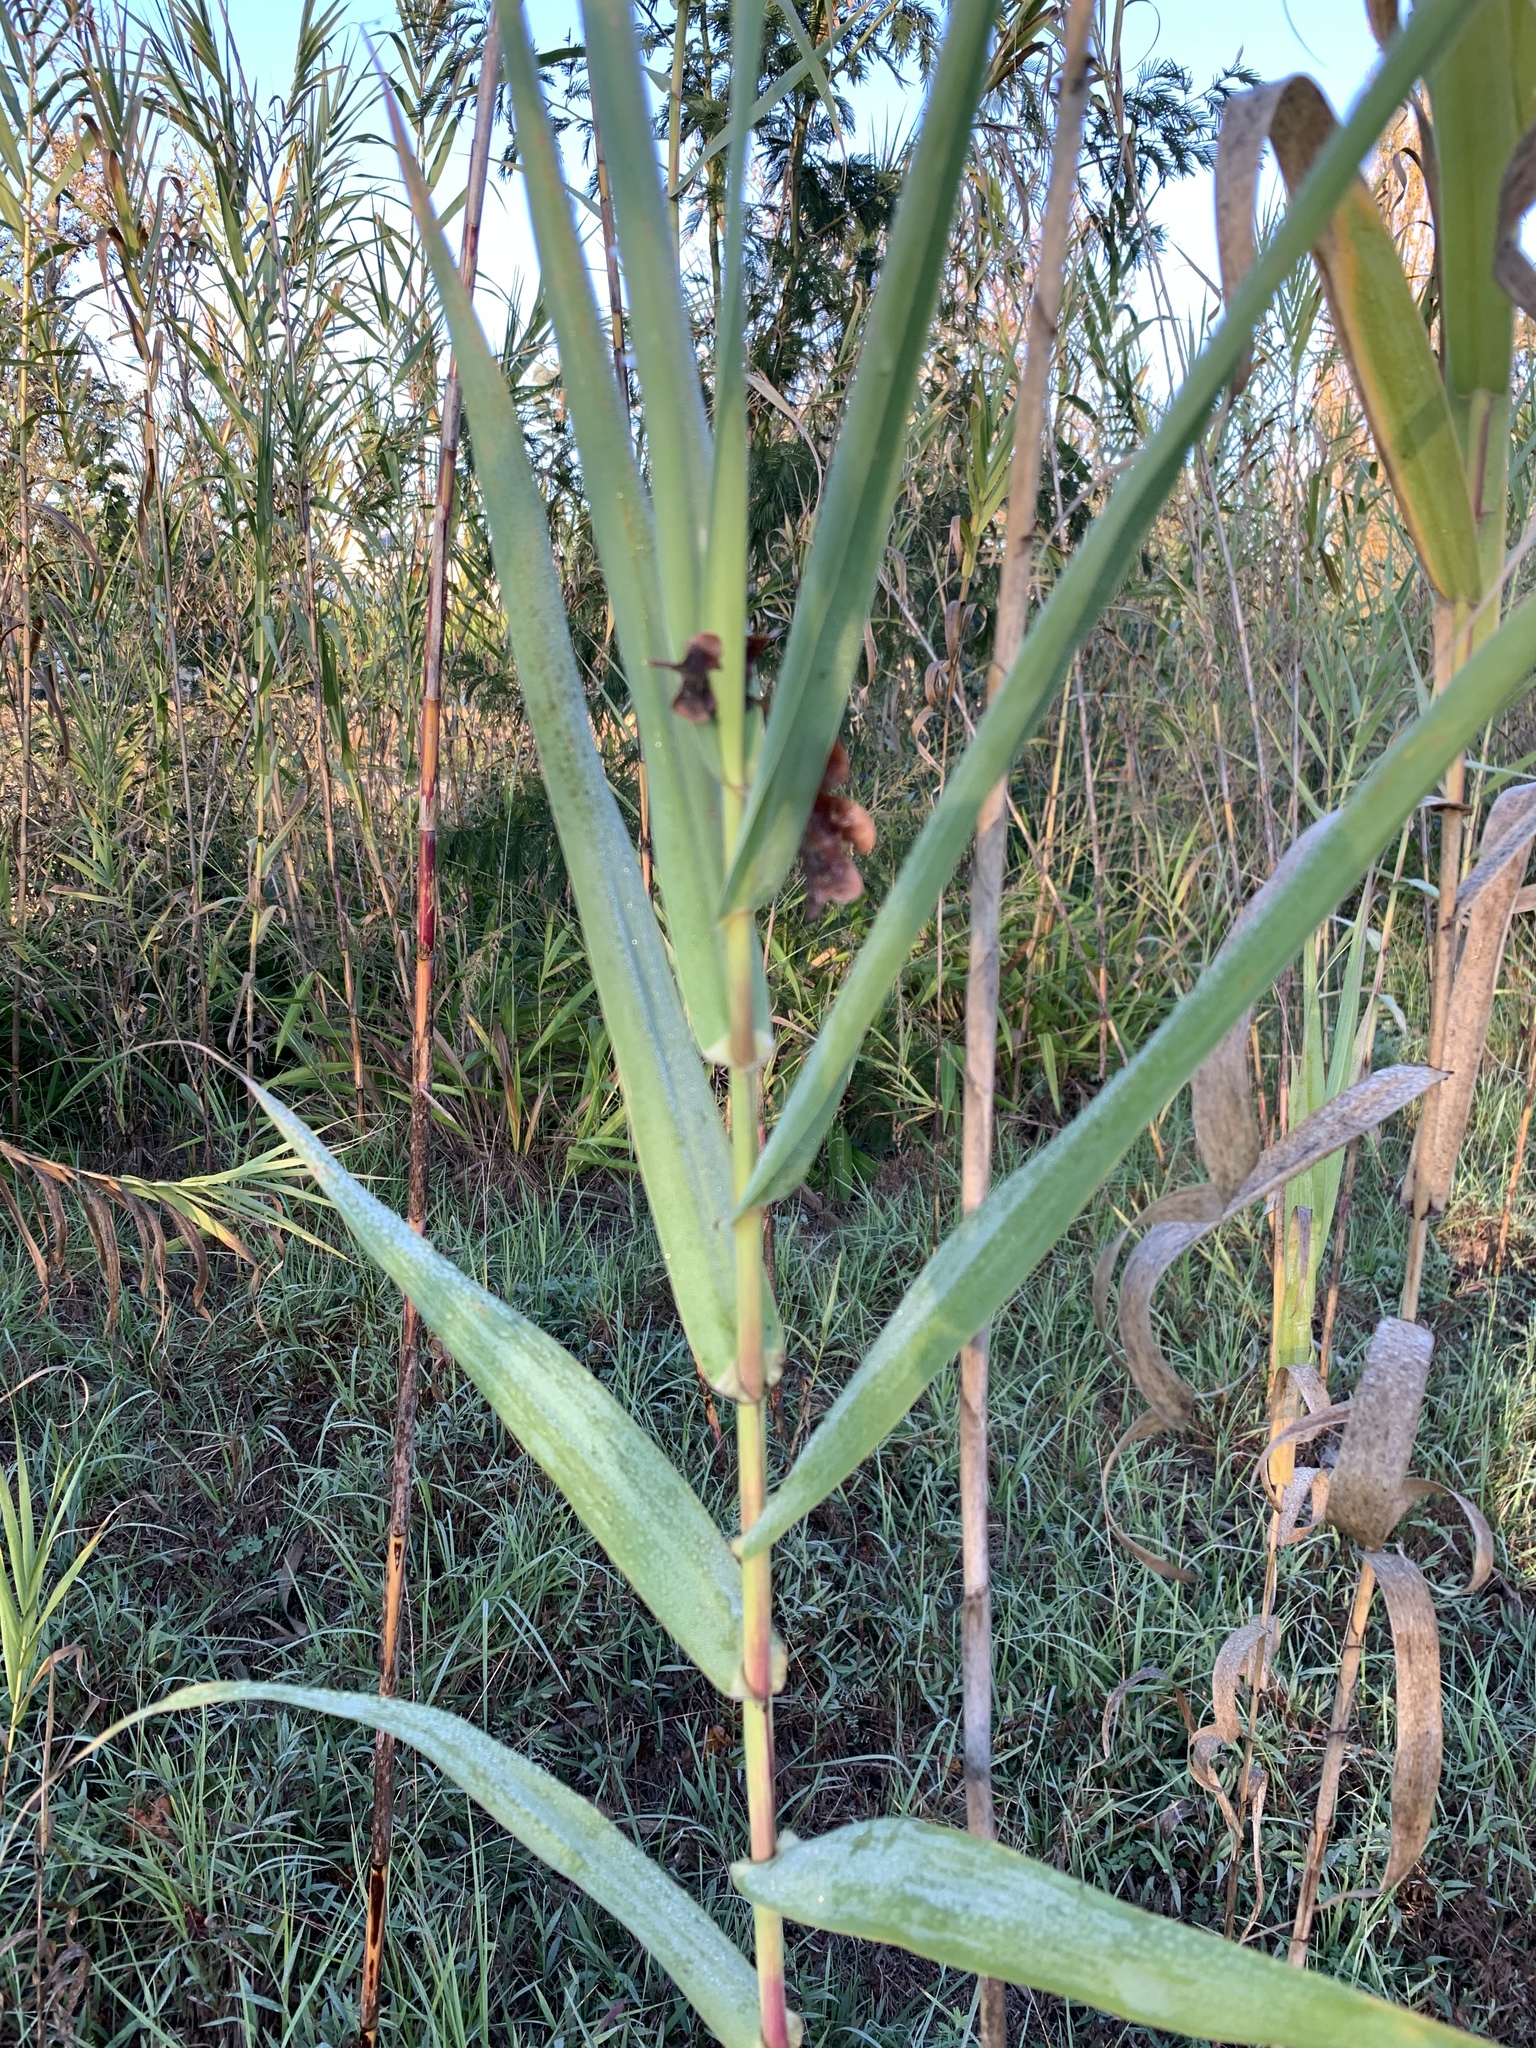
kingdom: Plantae
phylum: Tracheophyta
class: Liliopsida
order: Poales
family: Poaceae
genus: Arundo
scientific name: Arundo donax
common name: Giant reed
